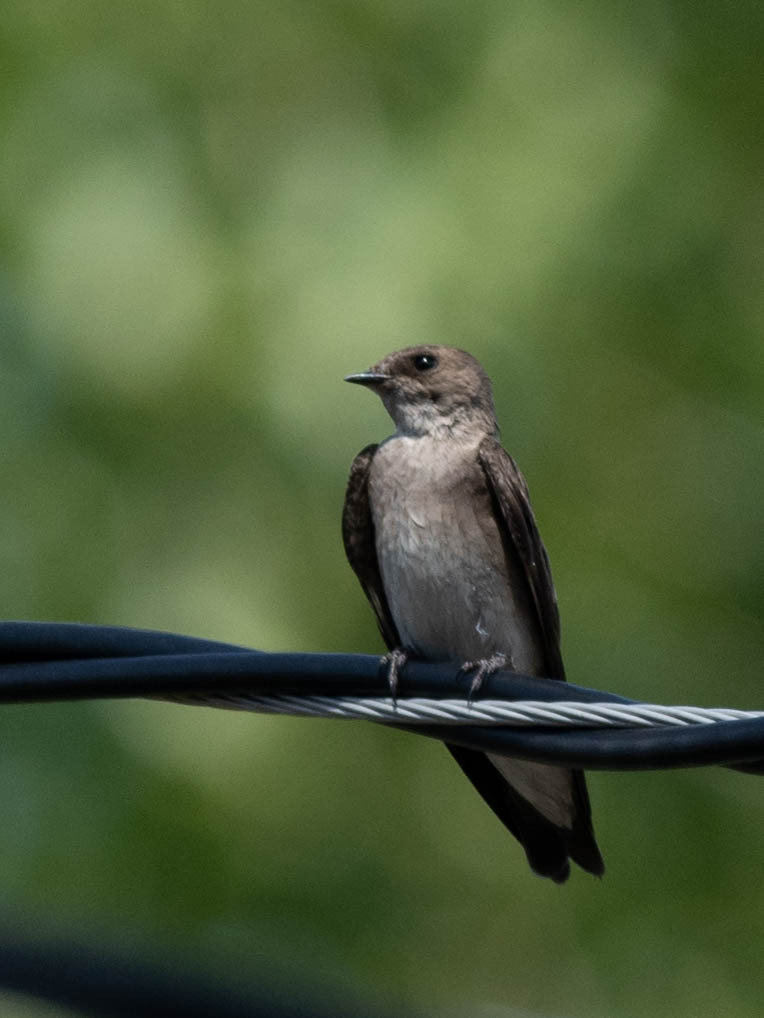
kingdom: Animalia
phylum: Chordata
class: Aves
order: Passeriformes
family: Hirundinidae
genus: Stelgidopteryx
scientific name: Stelgidopteryx serripennis
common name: Northern rough-winged swallow
